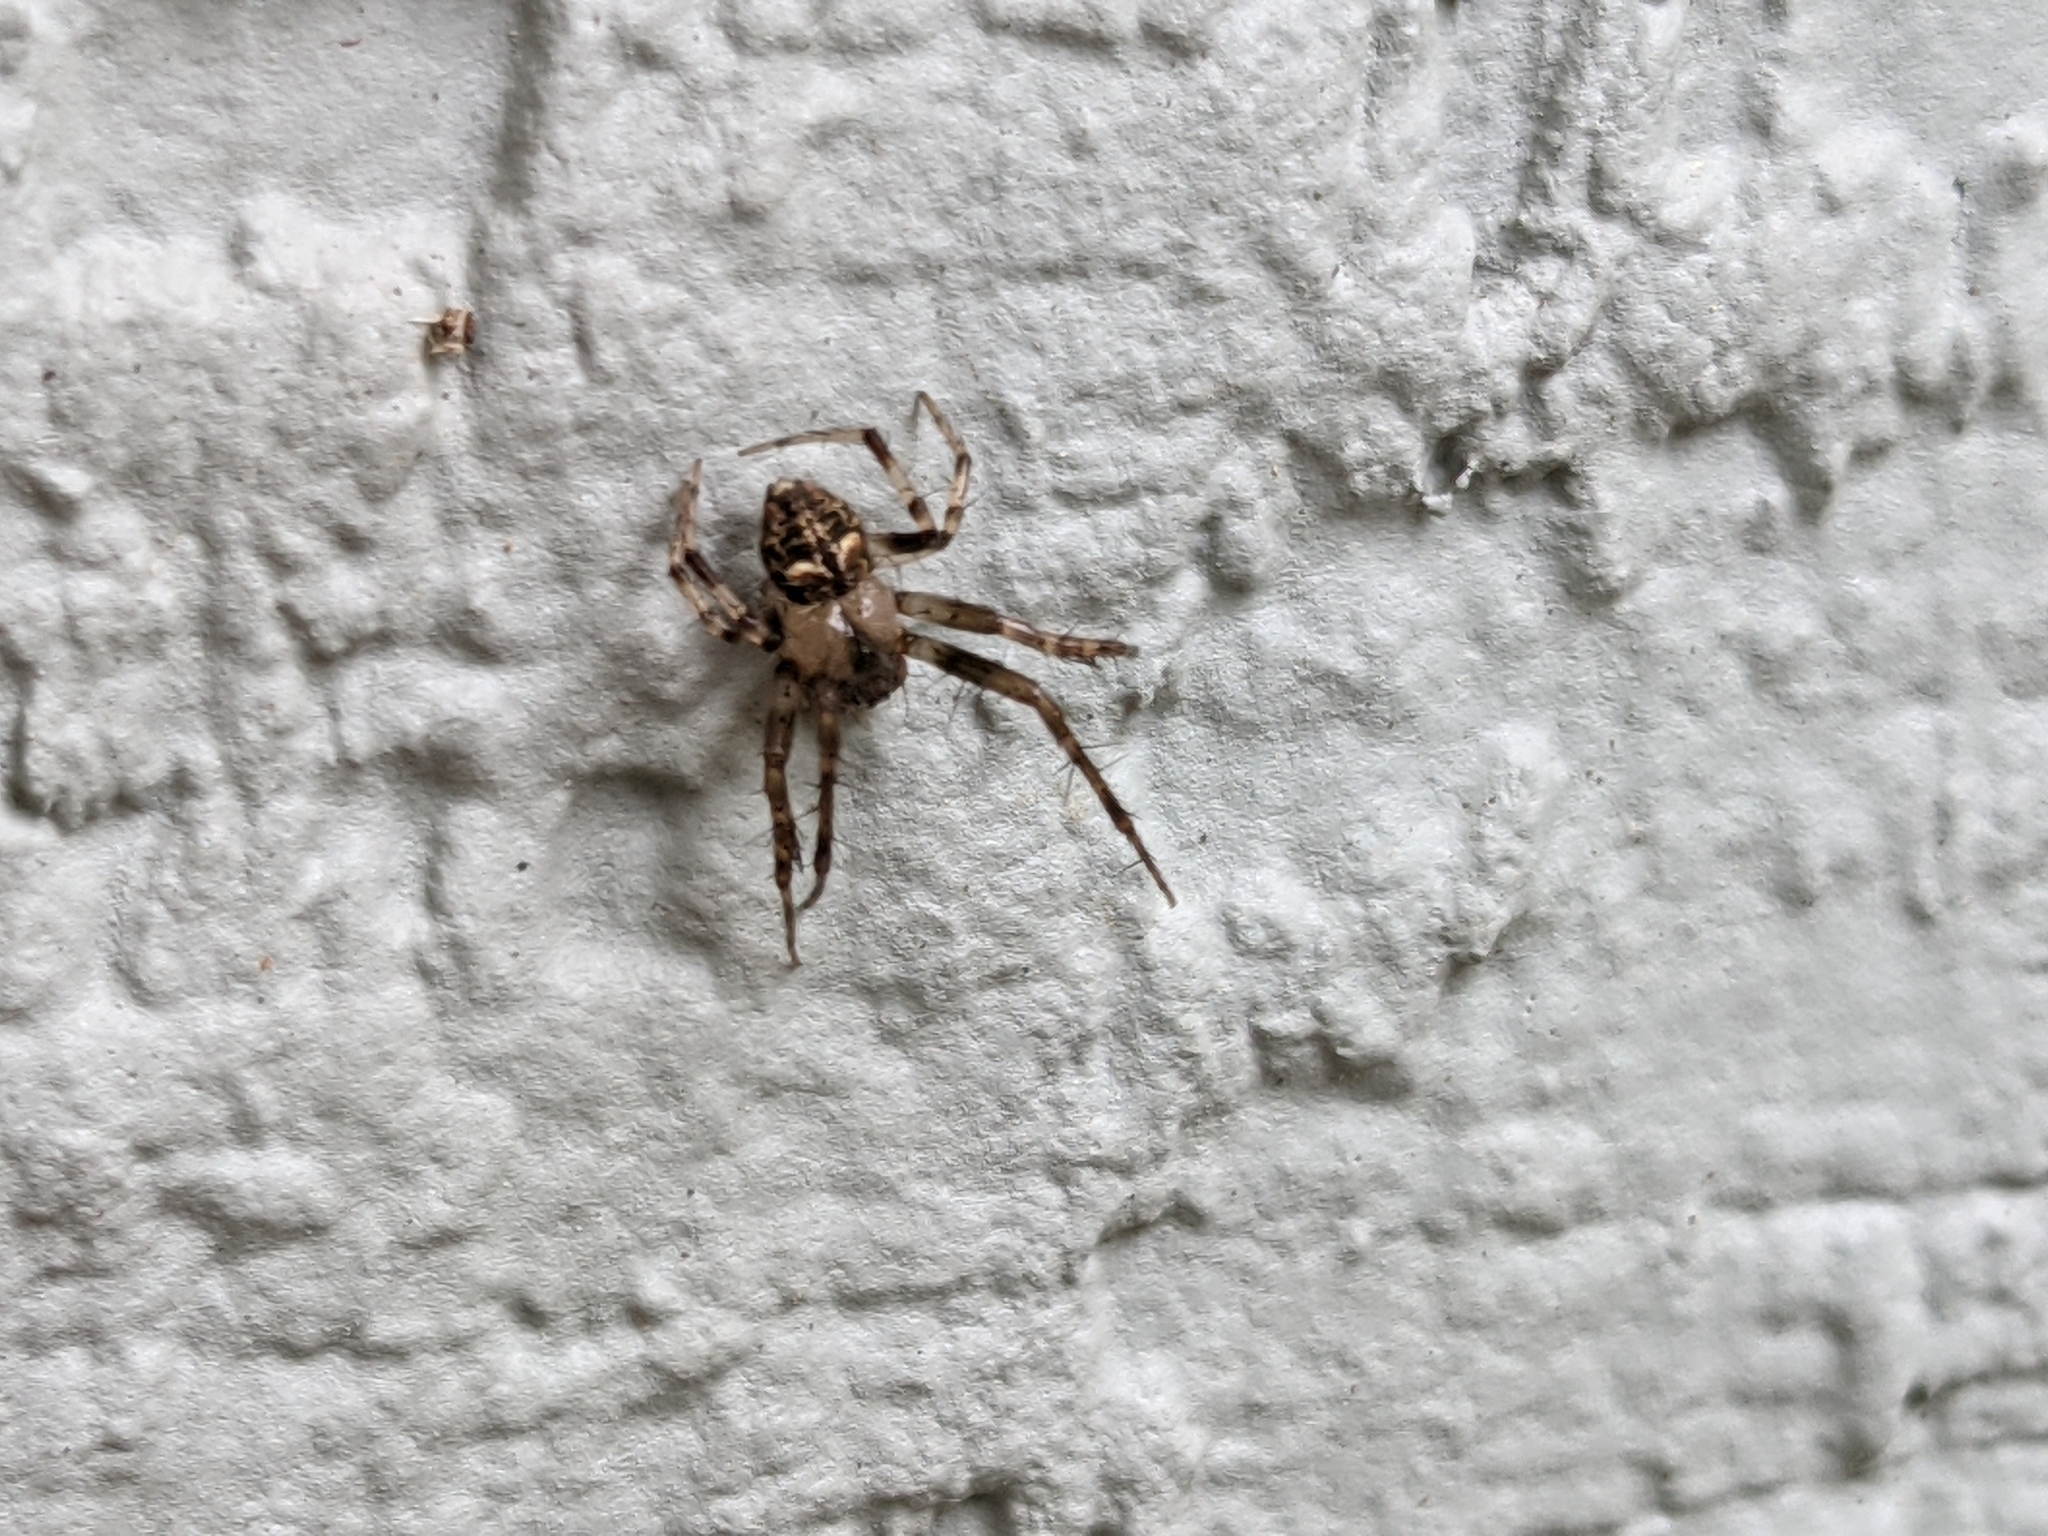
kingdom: Animalia
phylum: Arthropoda
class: Arachnida
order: Araneae
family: Araneidae
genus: Araneus
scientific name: Araneus pegnia
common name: Orb weavers
